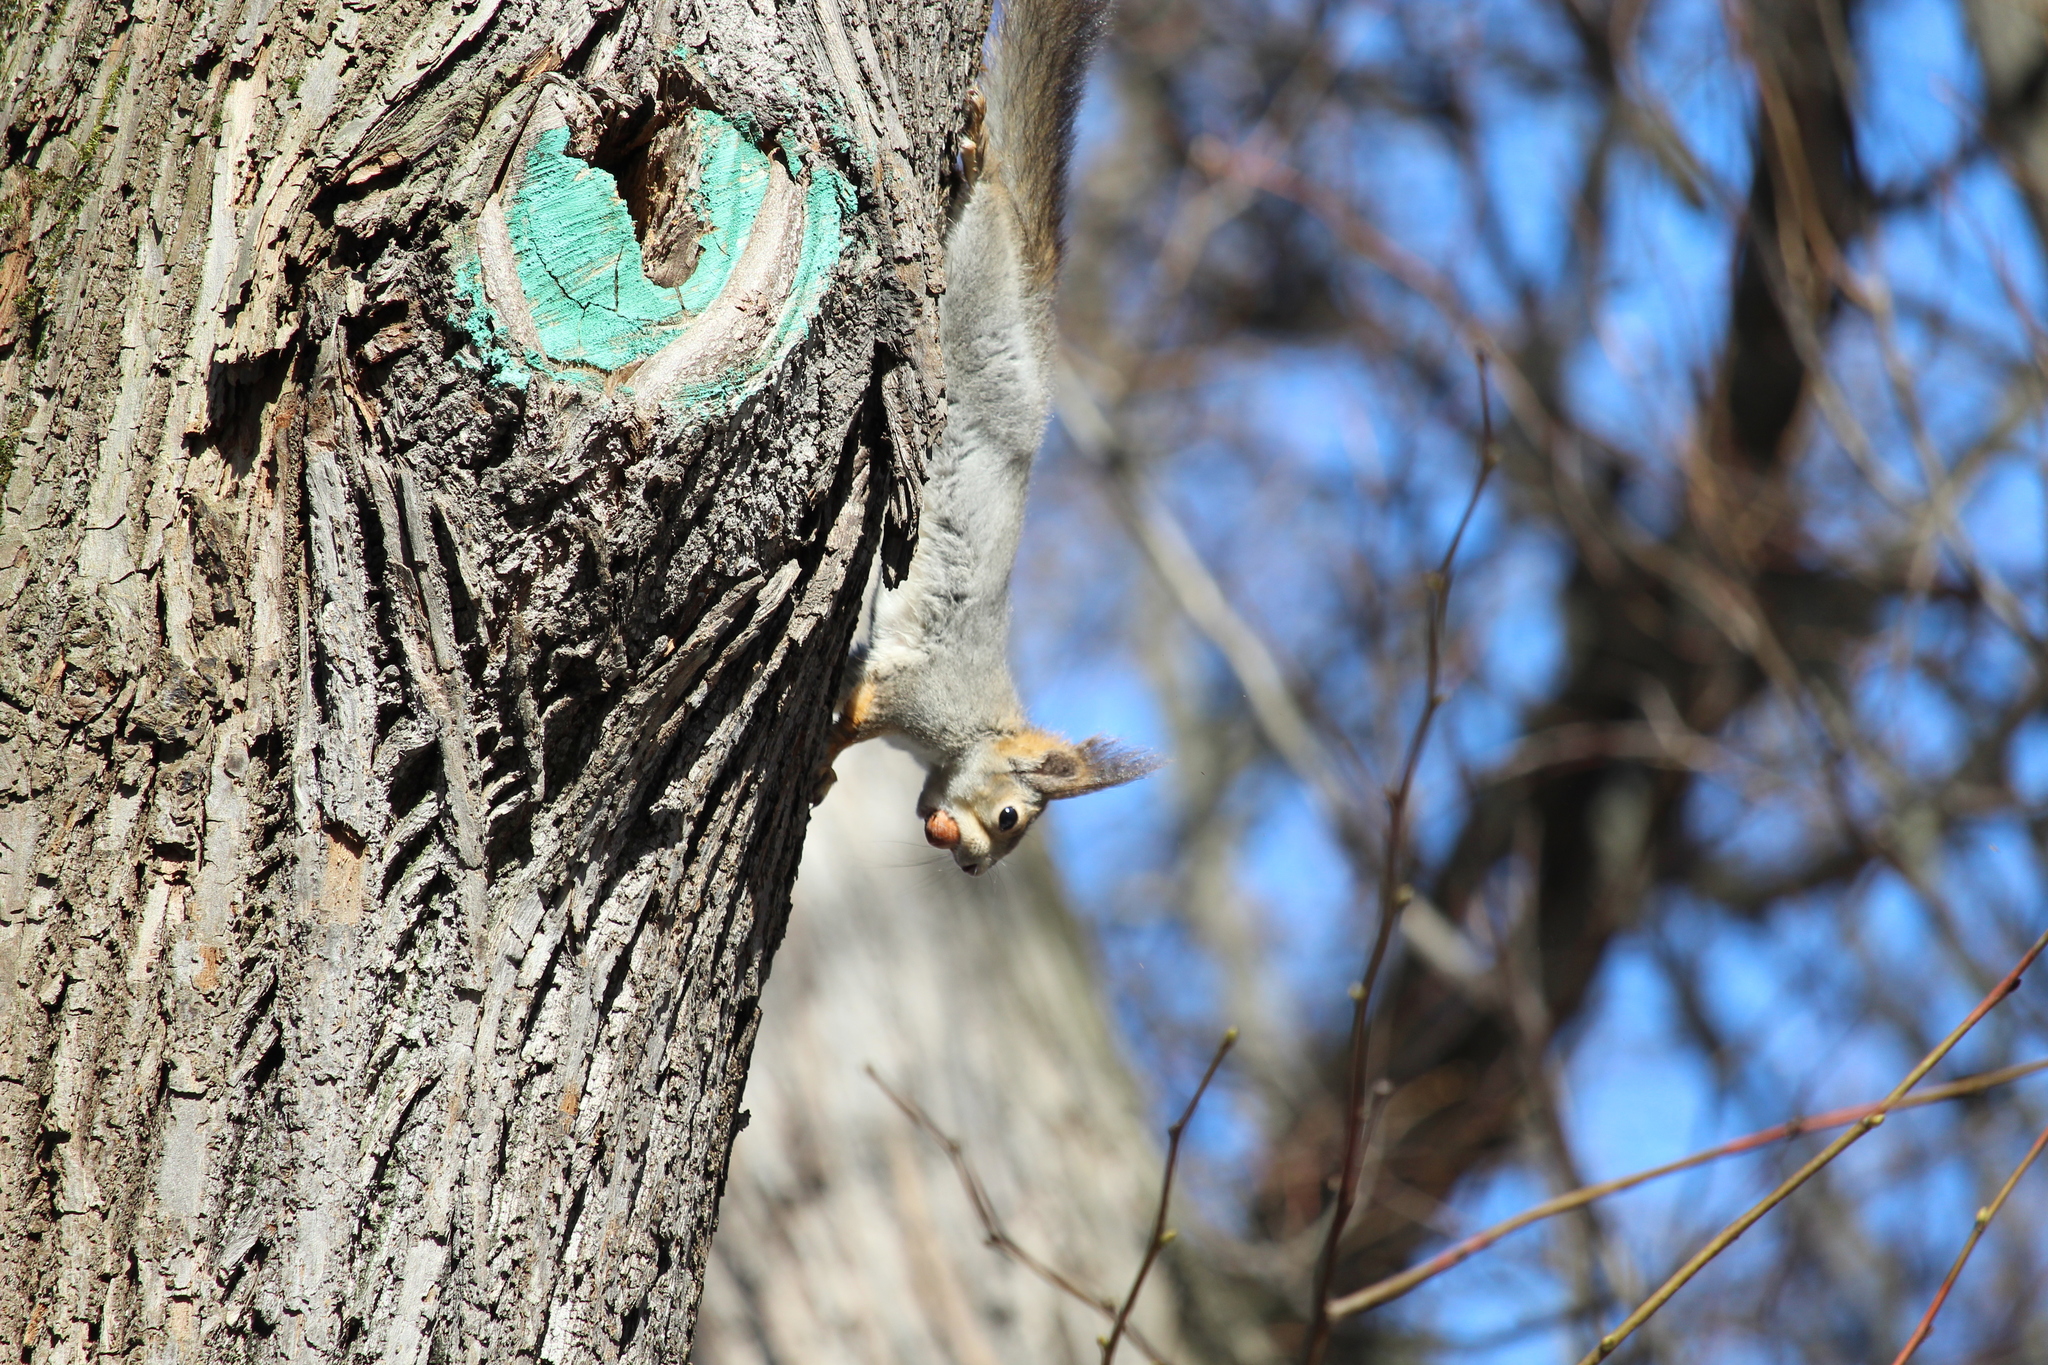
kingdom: Animalia
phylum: Chordata
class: Mammalia
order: Rodentia
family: Sciuridae
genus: Sciurus
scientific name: Sciurus vulgaris
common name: Eurasian red squirrel
